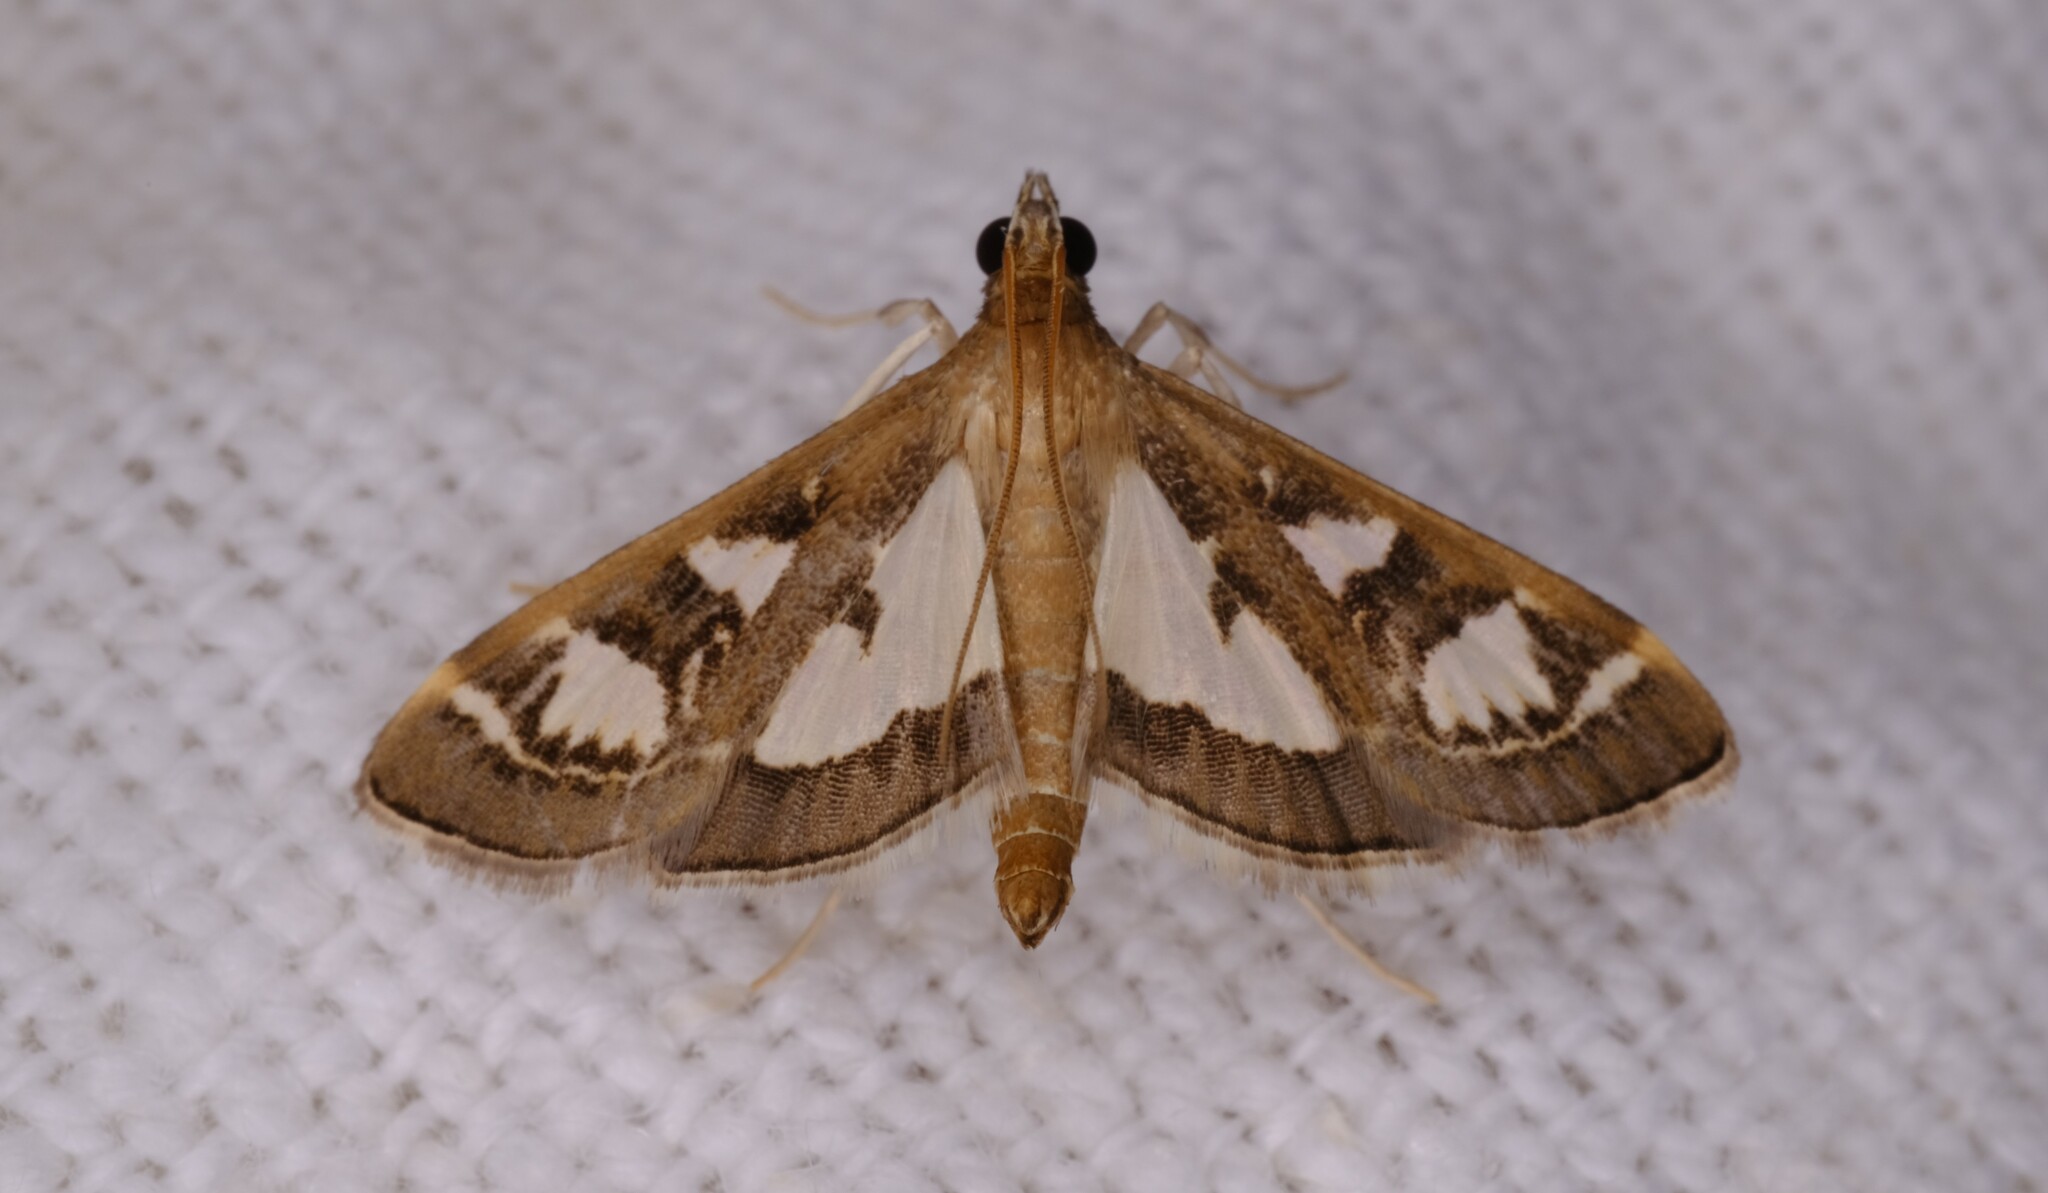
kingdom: Animalia
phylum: Arthropoda
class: Insecta
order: Lepidoptera
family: Crambidae
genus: Glyphodes
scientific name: Glyphodes microta
